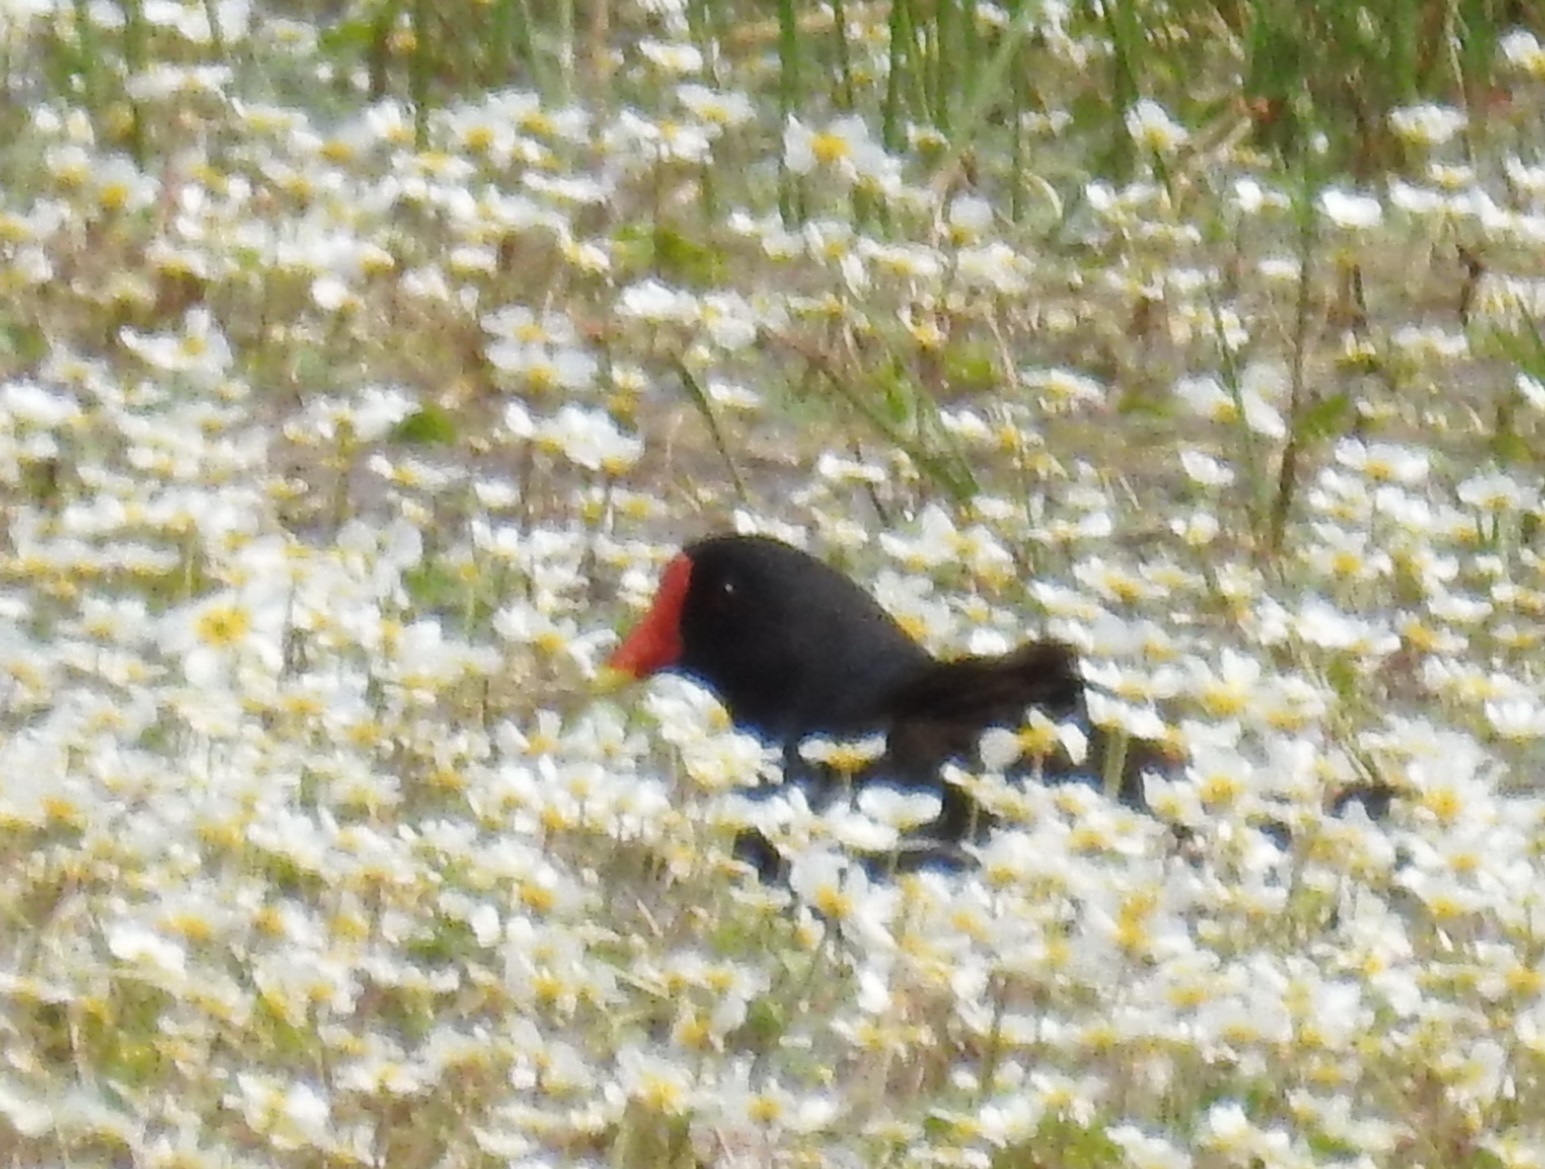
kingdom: Animalia
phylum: Chordata
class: Aves
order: Gruiformes
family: Rallidae
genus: Gallinula
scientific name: Gallinula chloropus
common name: Common moorhen
